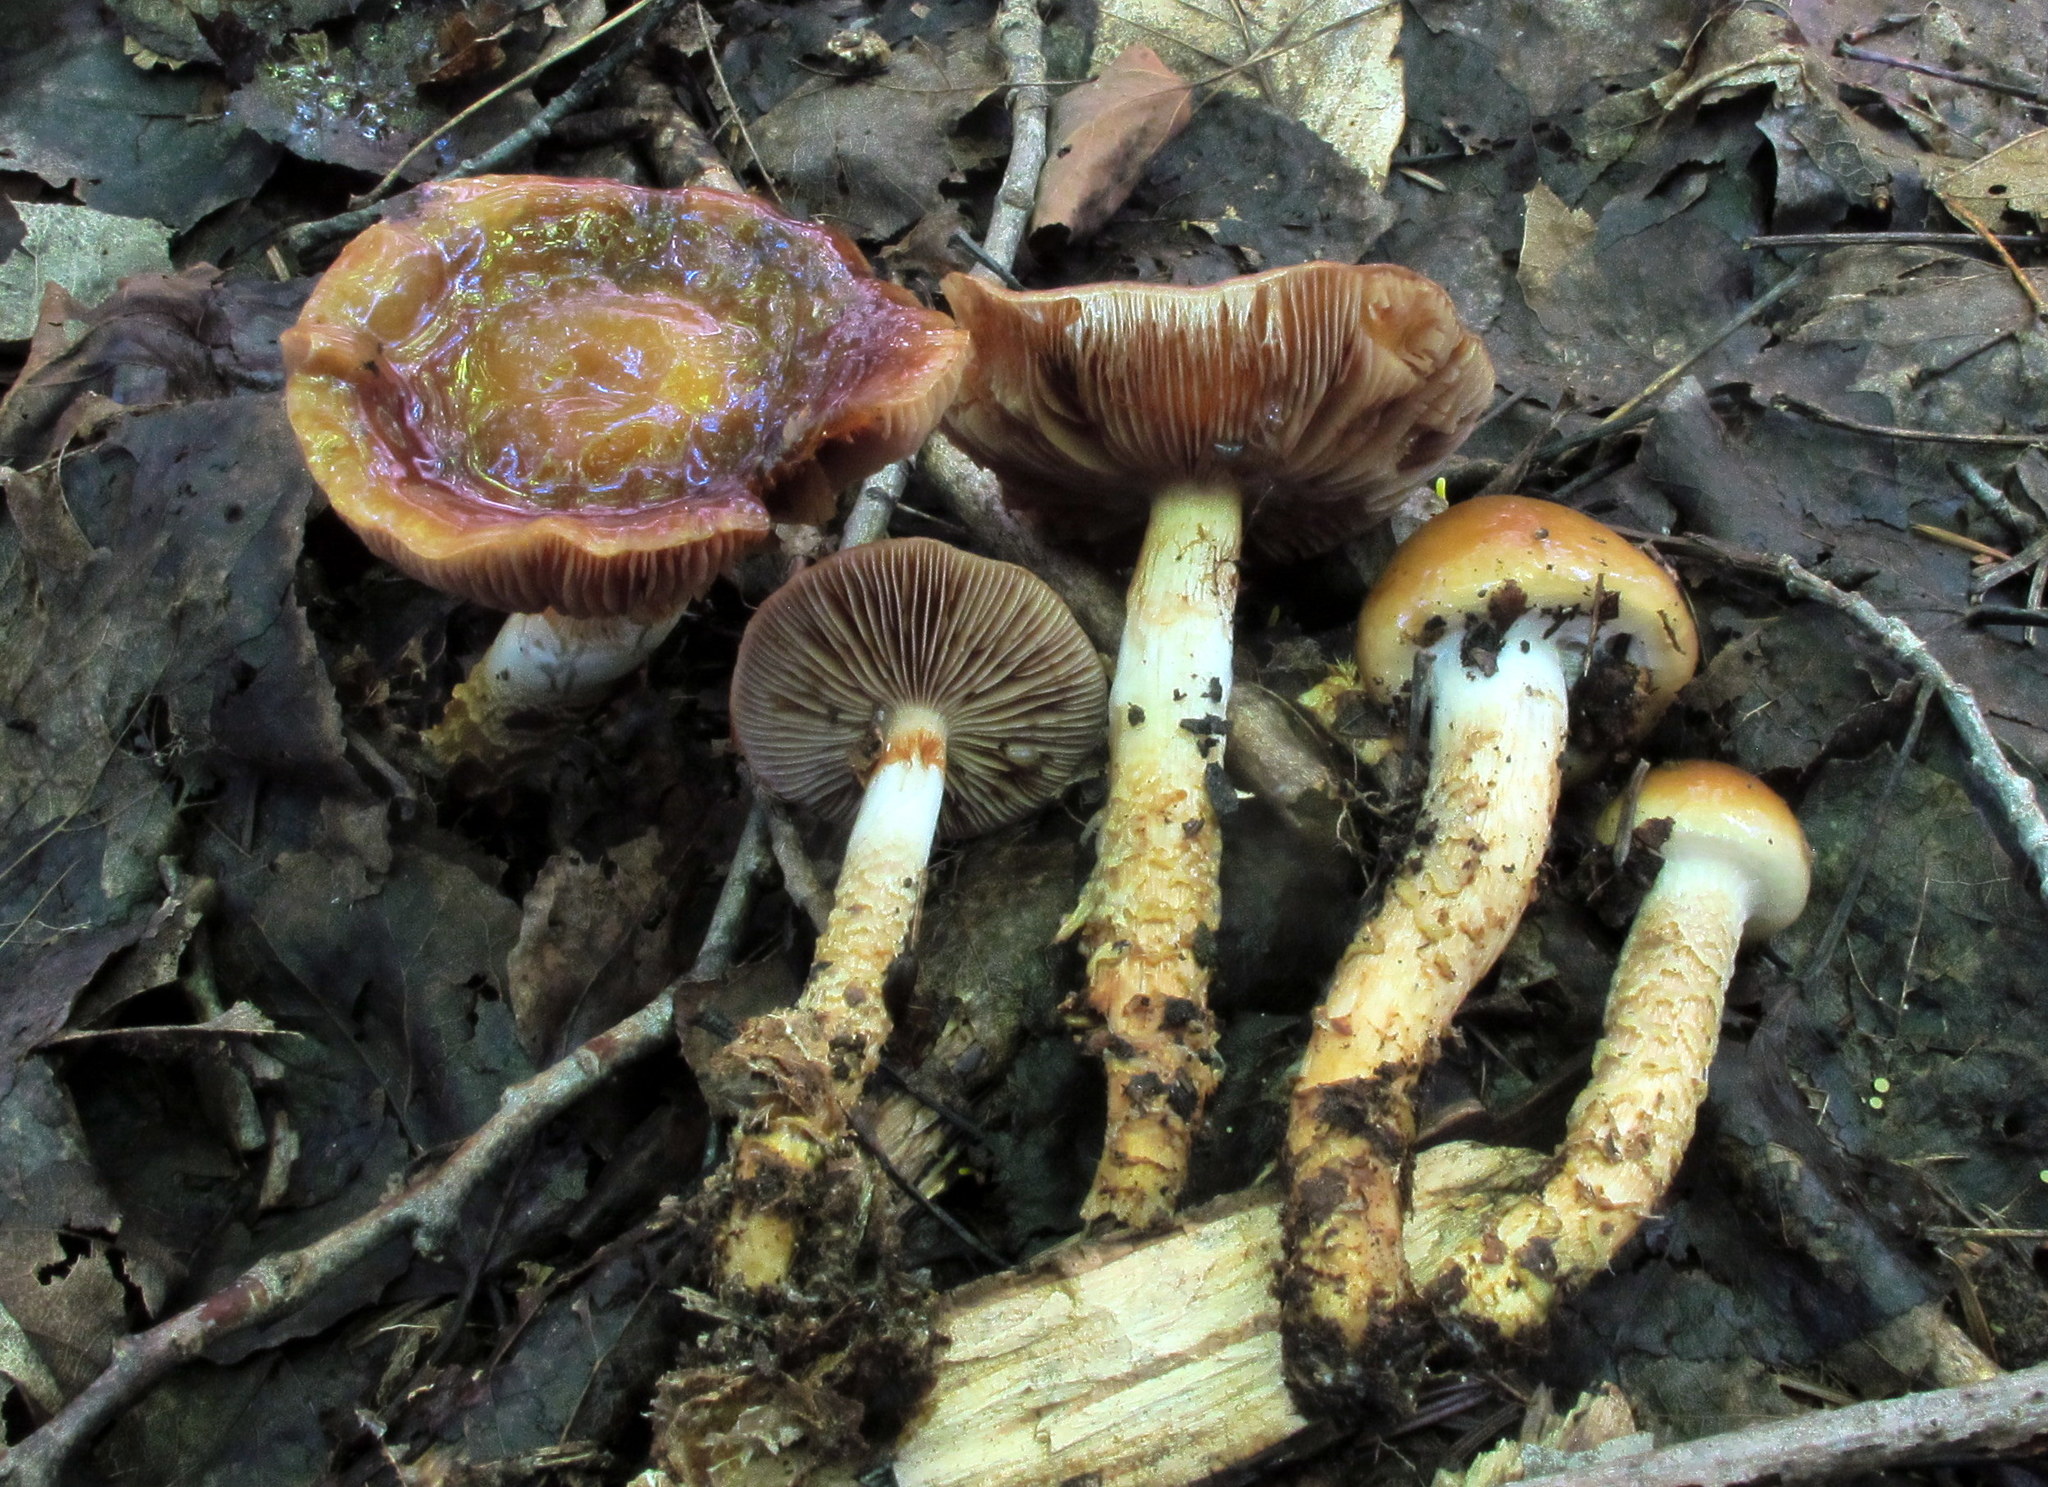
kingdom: Fungi
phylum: Basidiomycota
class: Agaricomycetes
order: Agaricales
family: Cortinariaceae
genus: Cortinarius
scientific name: Cortinarius trivialis
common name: Girdled webcap
